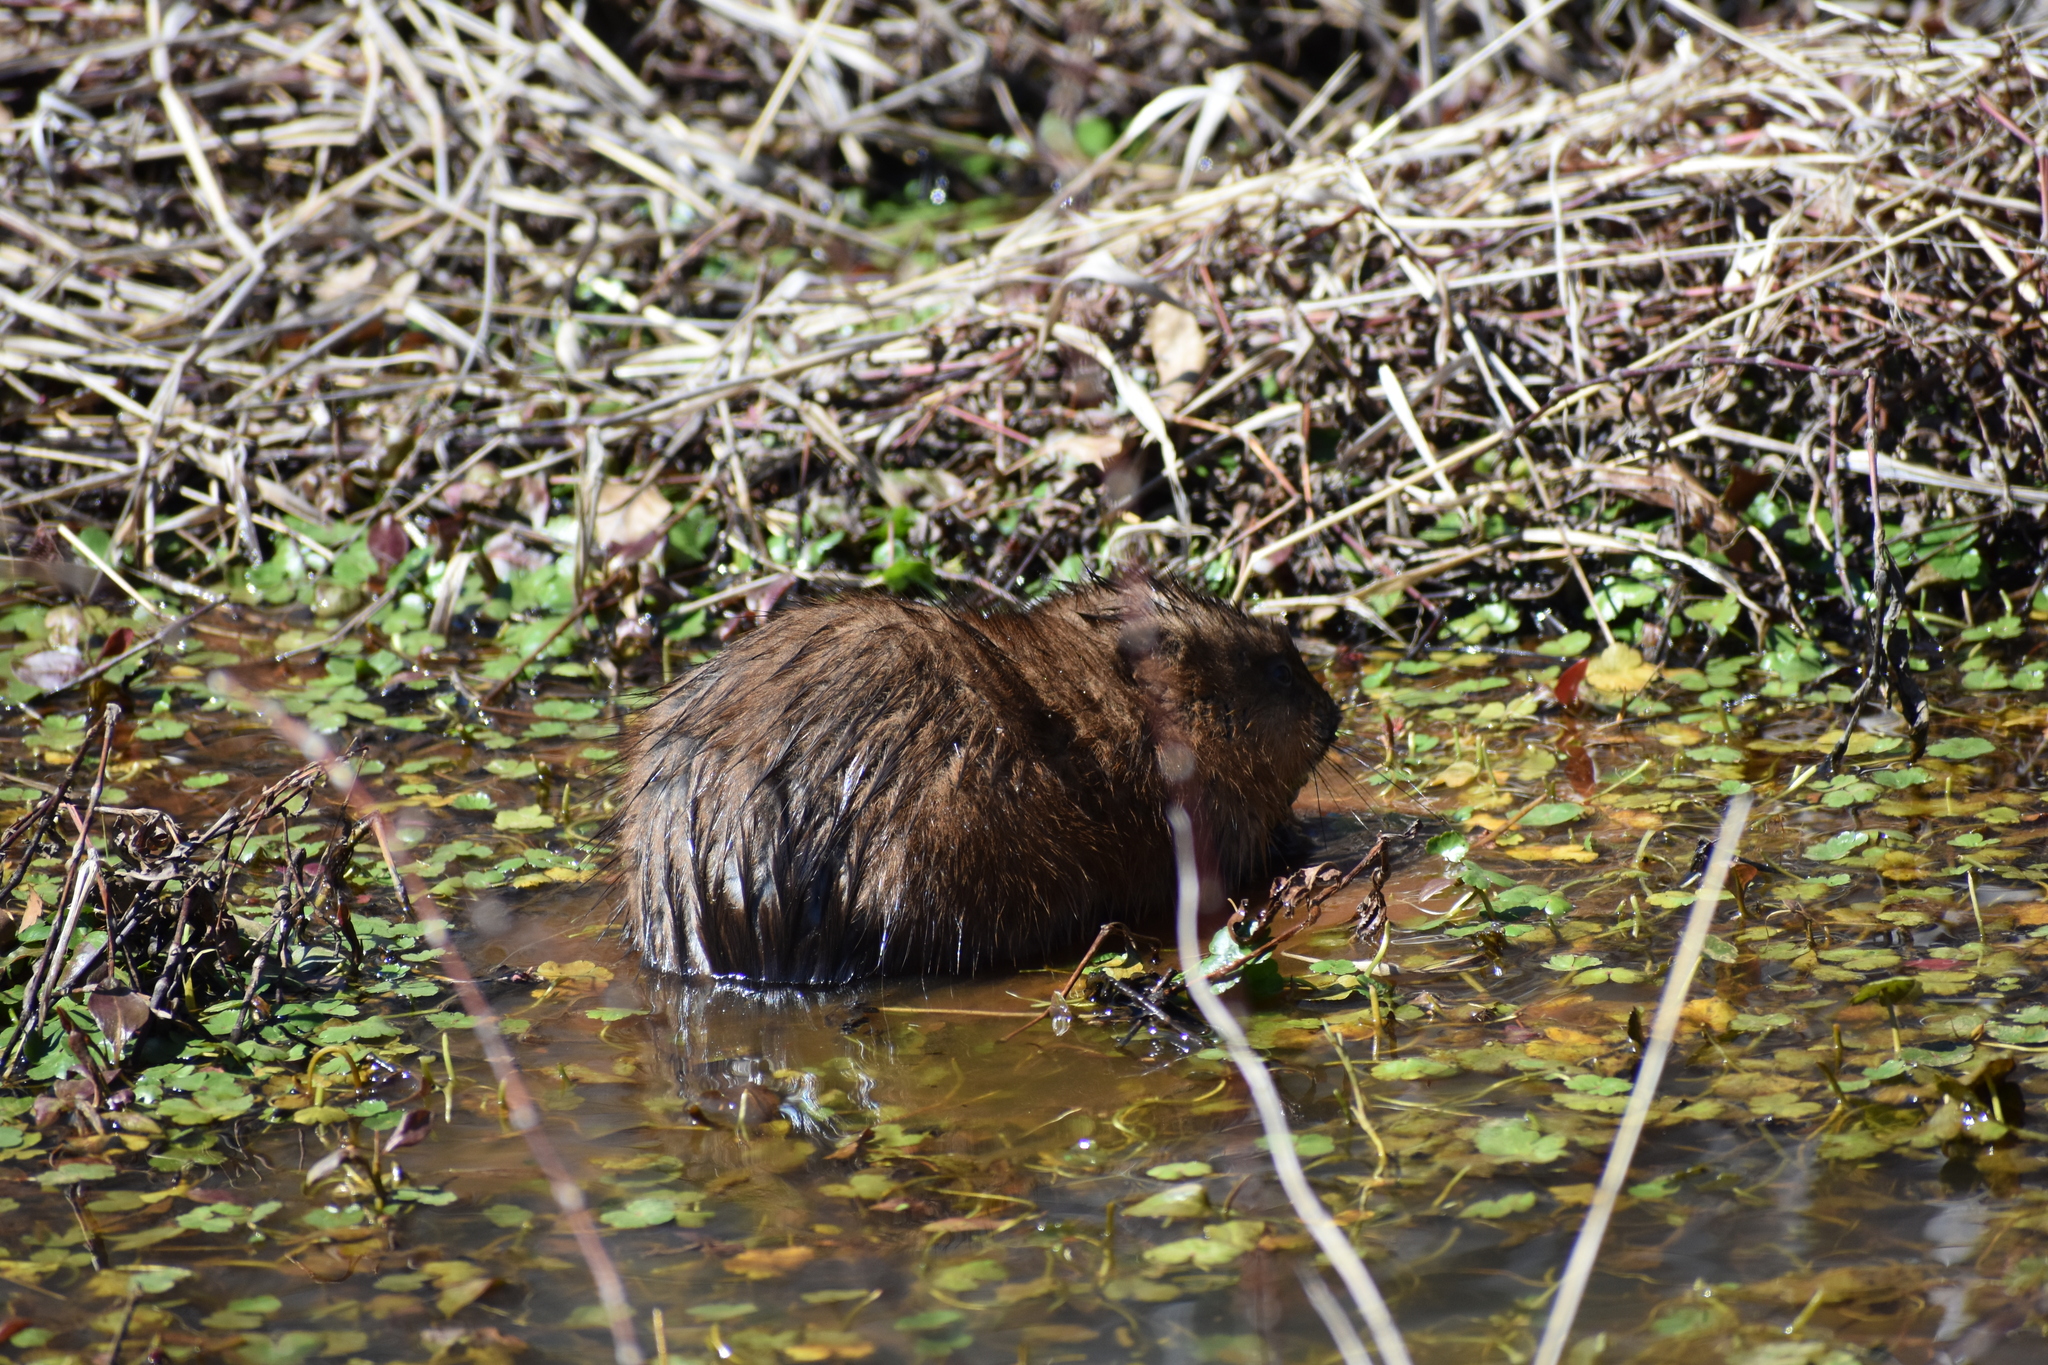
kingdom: Animalia
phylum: Chordata
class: Mammalia
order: Rodentia
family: Cricetidae
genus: Ondatra
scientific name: Ondatra zibethicus
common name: Muskrat
